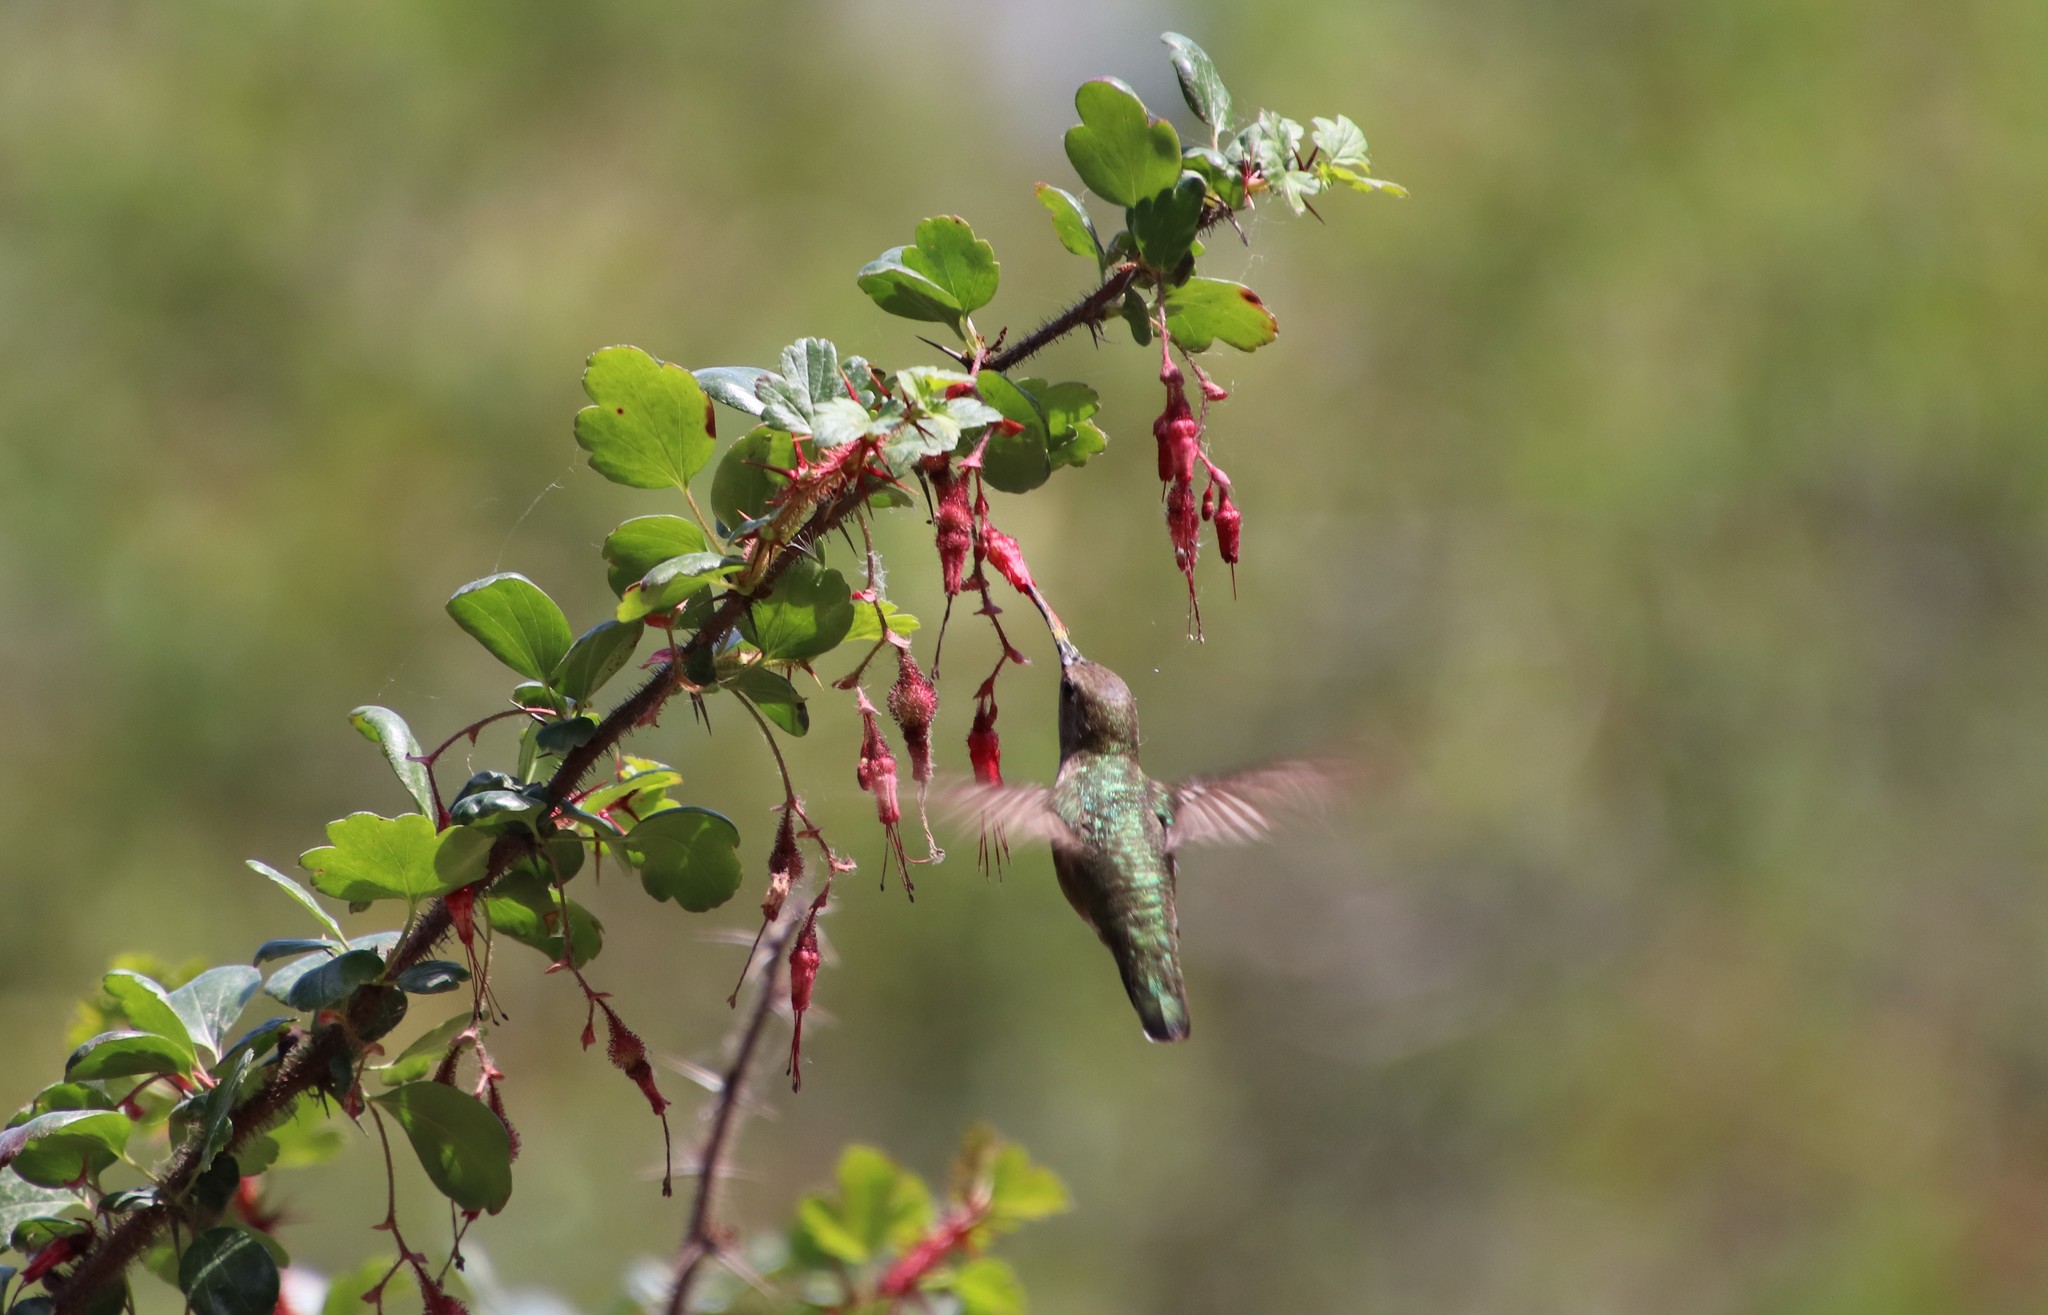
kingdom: Animalia
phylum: Chordata
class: Aves
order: Apodiformes
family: Trochilidae
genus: Calypte
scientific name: Calypte anna
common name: Anna's hummingbird
